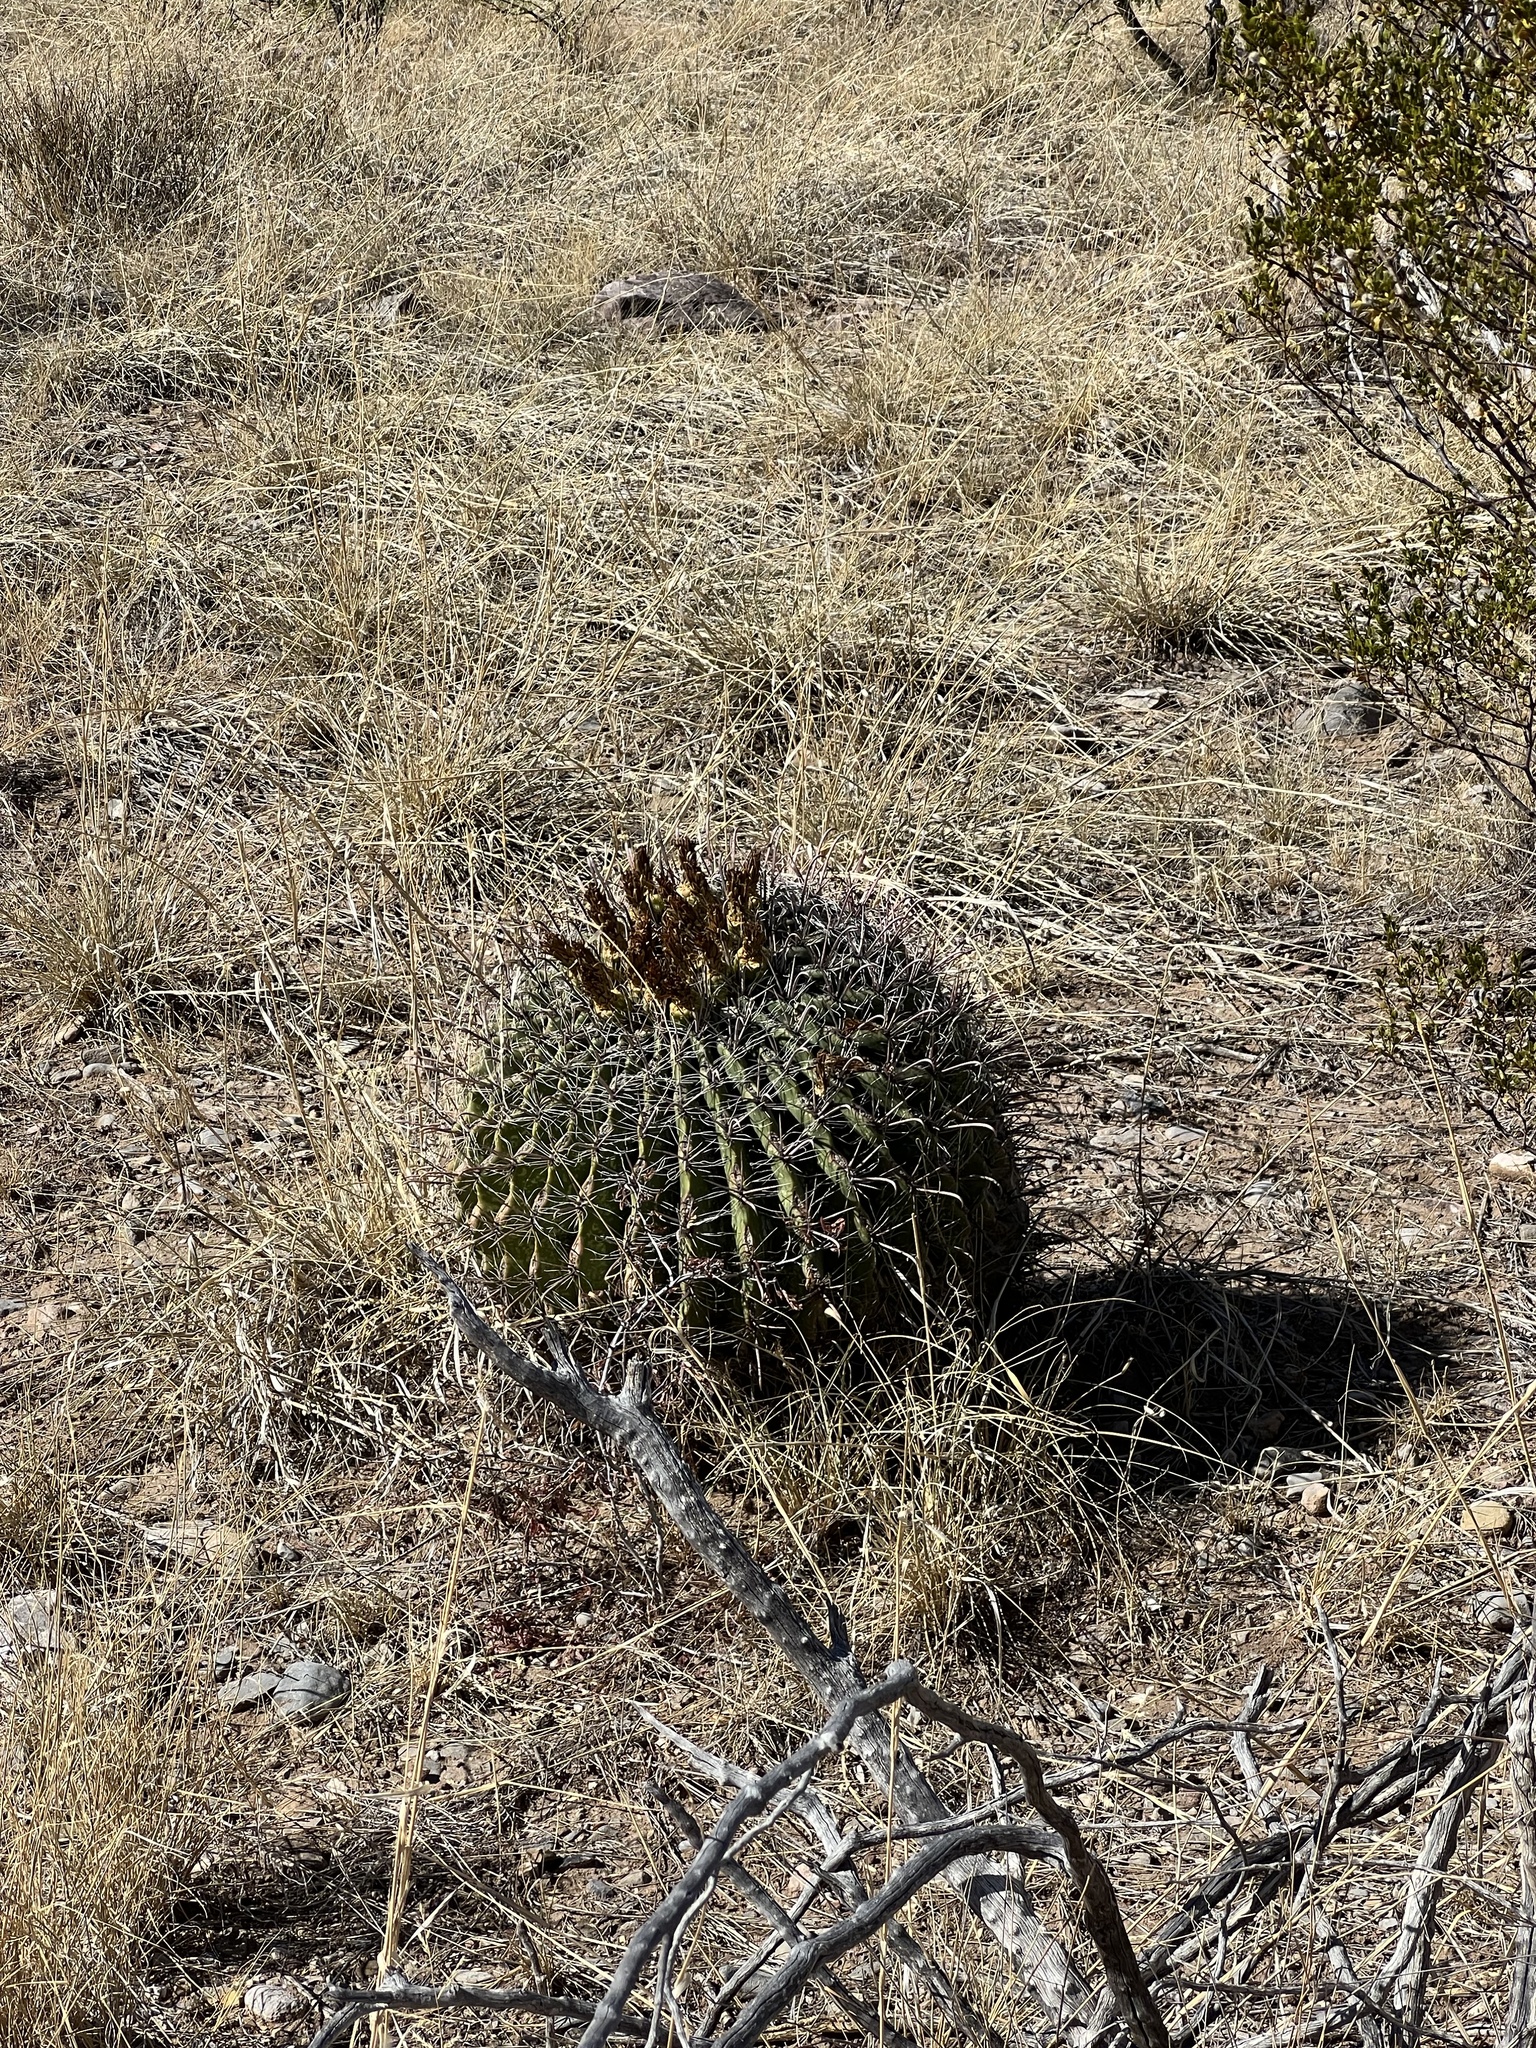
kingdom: Plantae
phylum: Tracheophyta
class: Magnoliopsida
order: Caryophyllales
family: Cactaceae
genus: Ferocactus
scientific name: Ferocactus wislizeni
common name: Candy barrel cactus
